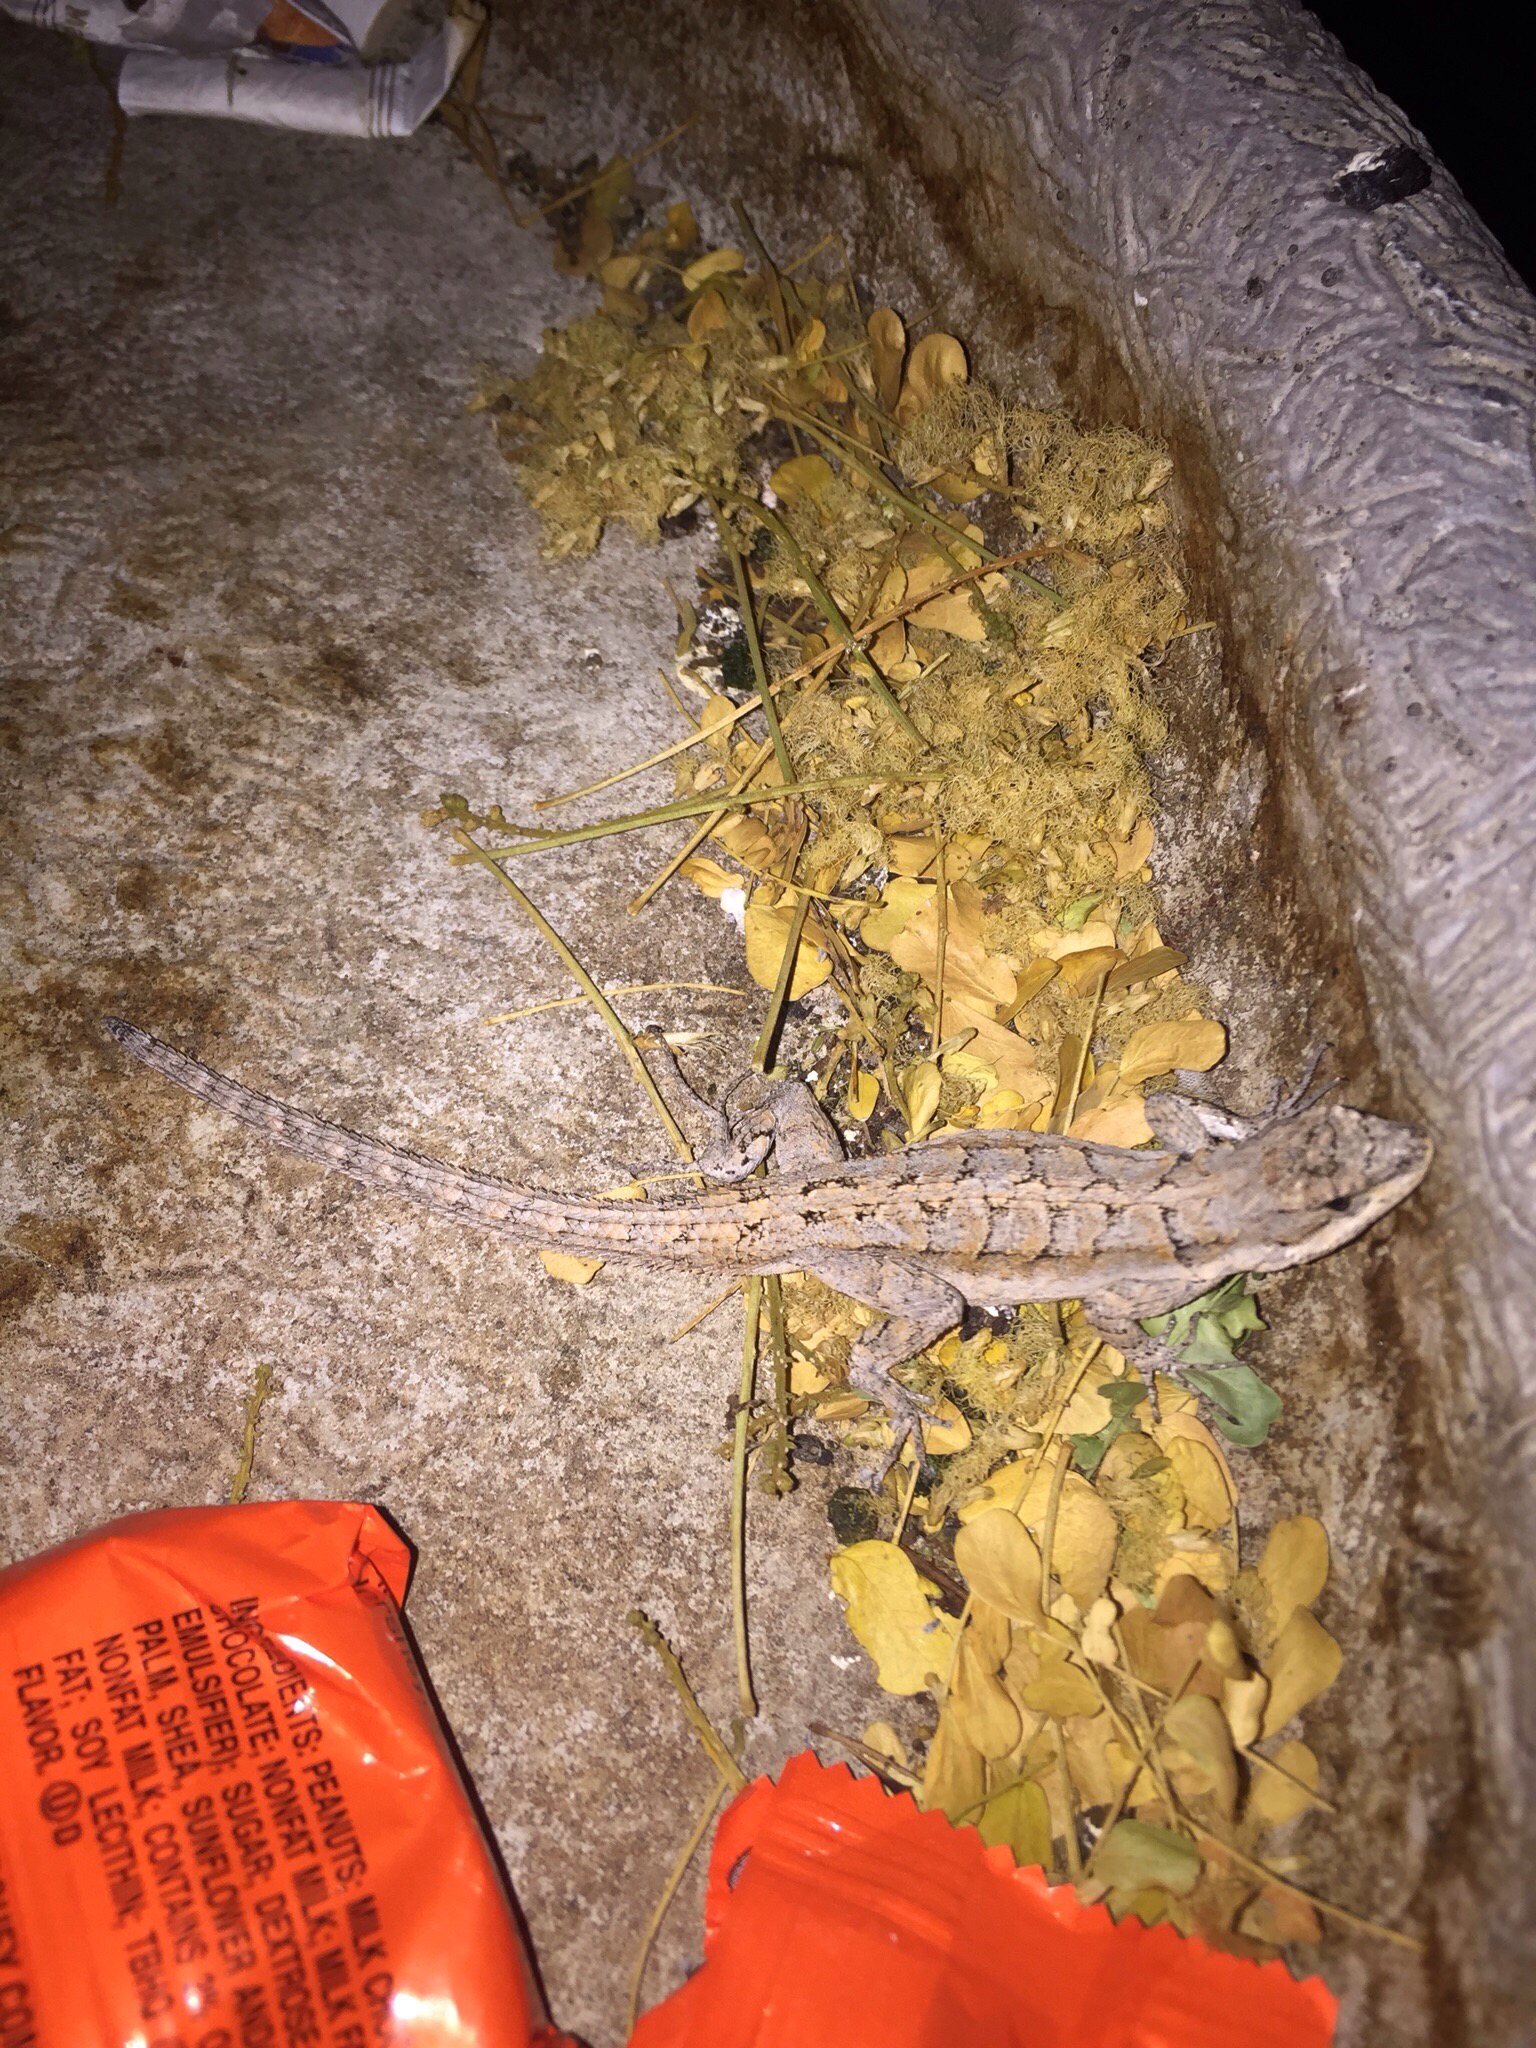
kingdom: Animalia
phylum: Chordata
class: Squamata
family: Phrynosomatidae
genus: Urosaurus
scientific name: Urosaurus ornatus
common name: Ornate tree lizard
